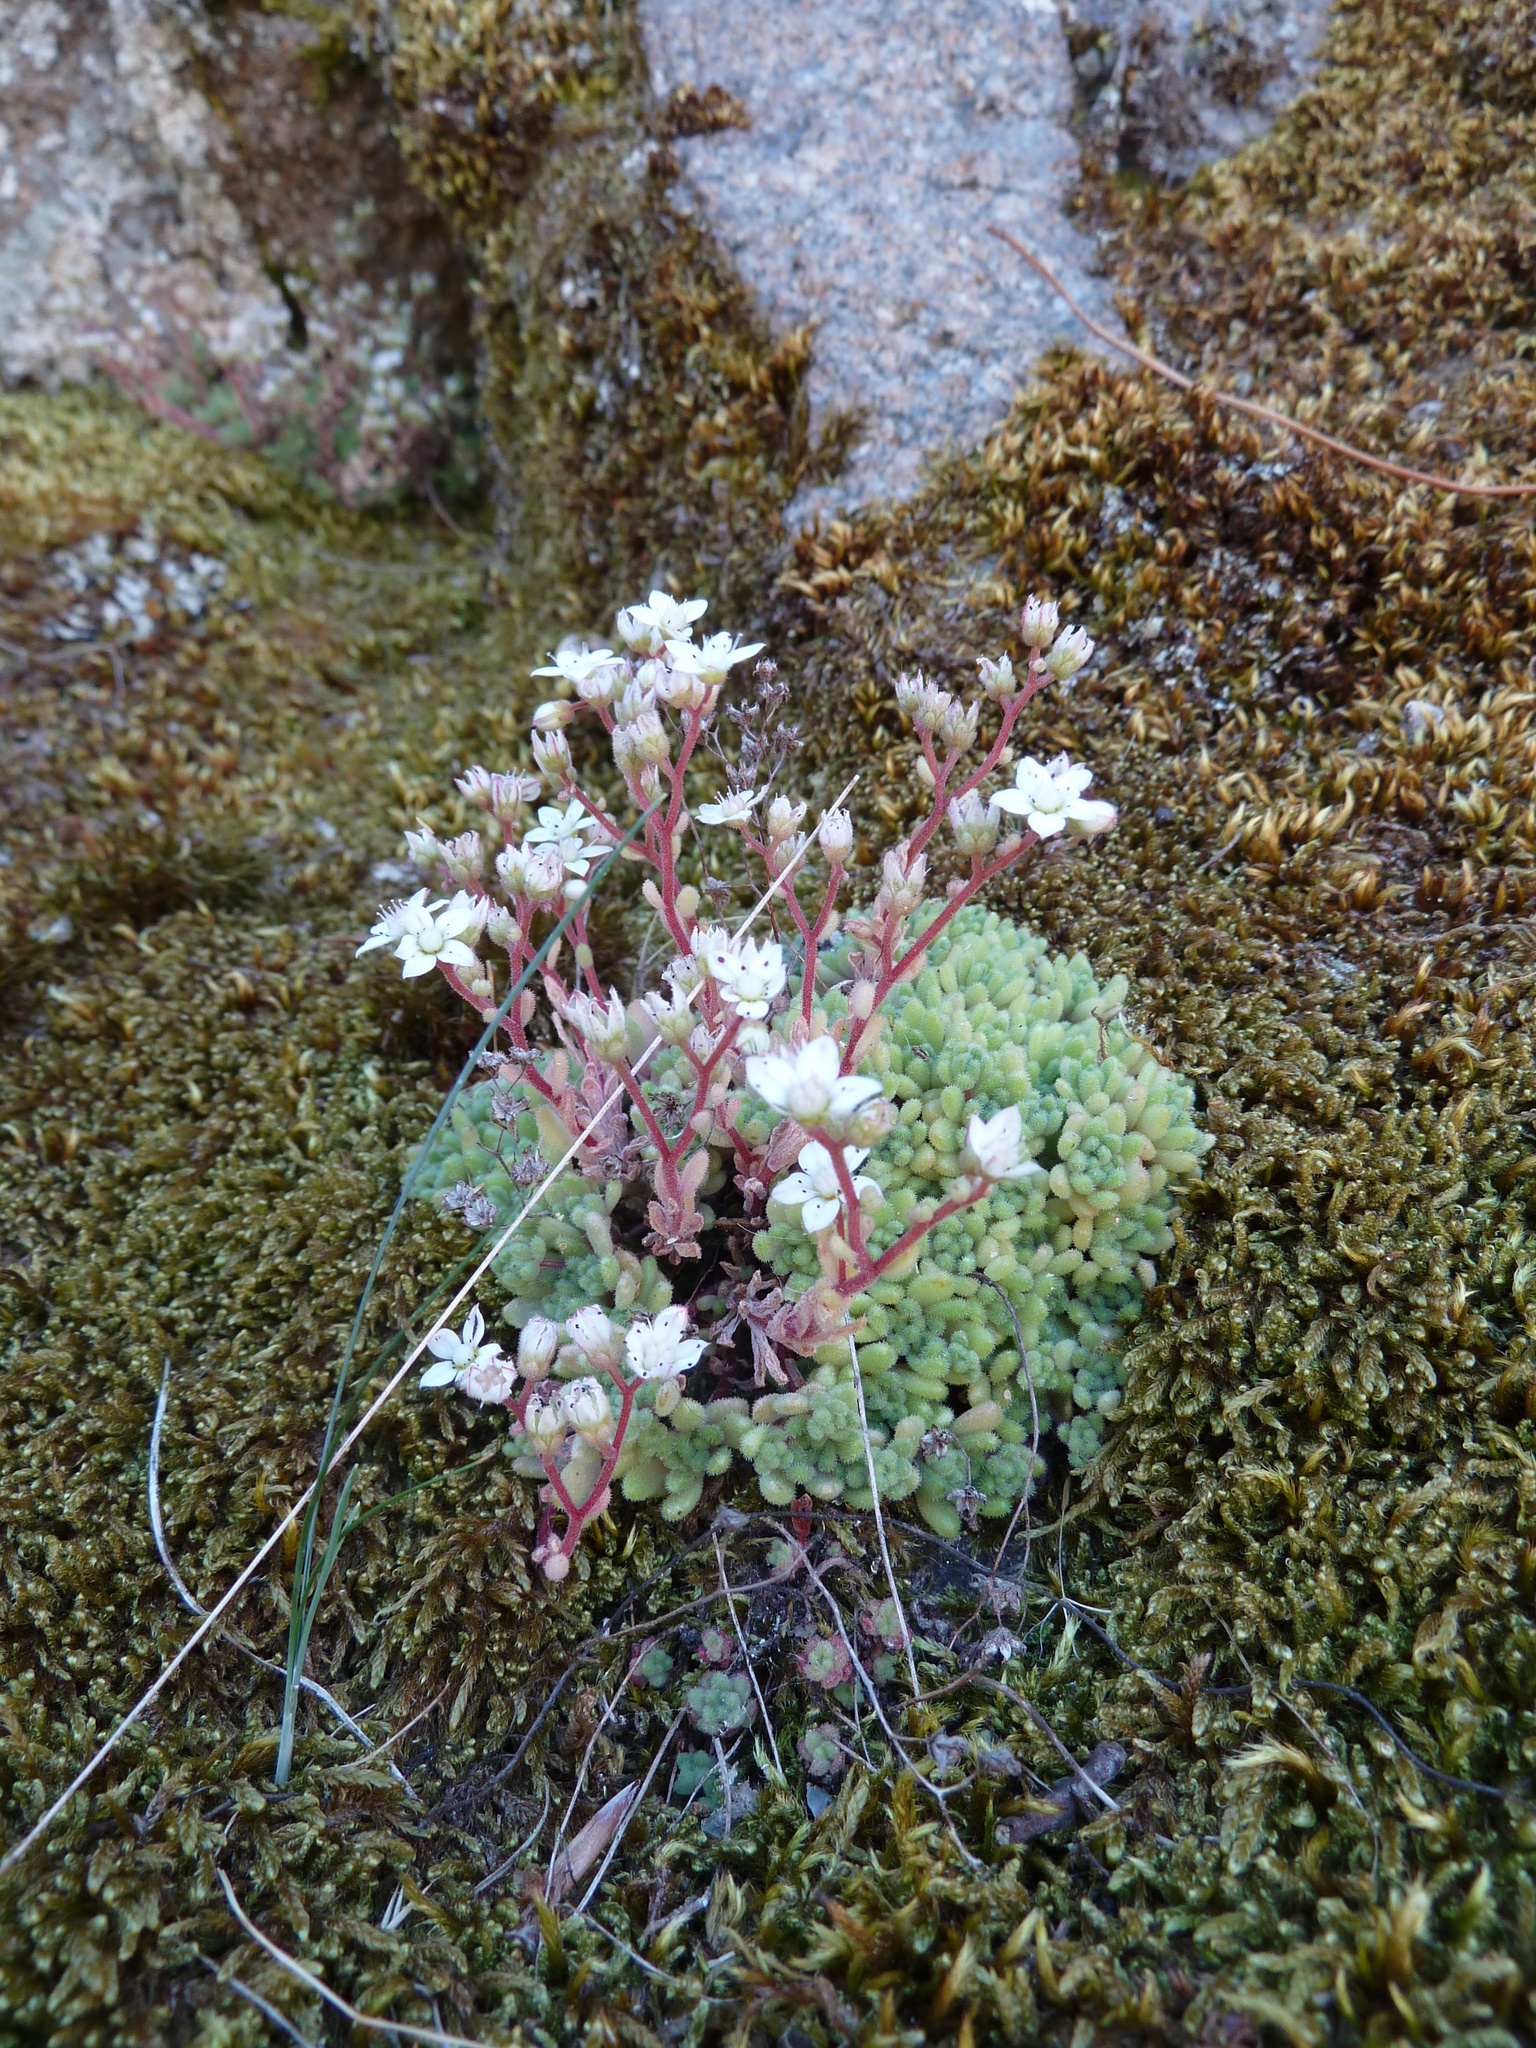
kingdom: Plantae
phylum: Tracheophyta
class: Magnoliopsida
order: Saxifragales
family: Crassulaceae
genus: Sedum
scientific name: Sedum hirsutum
